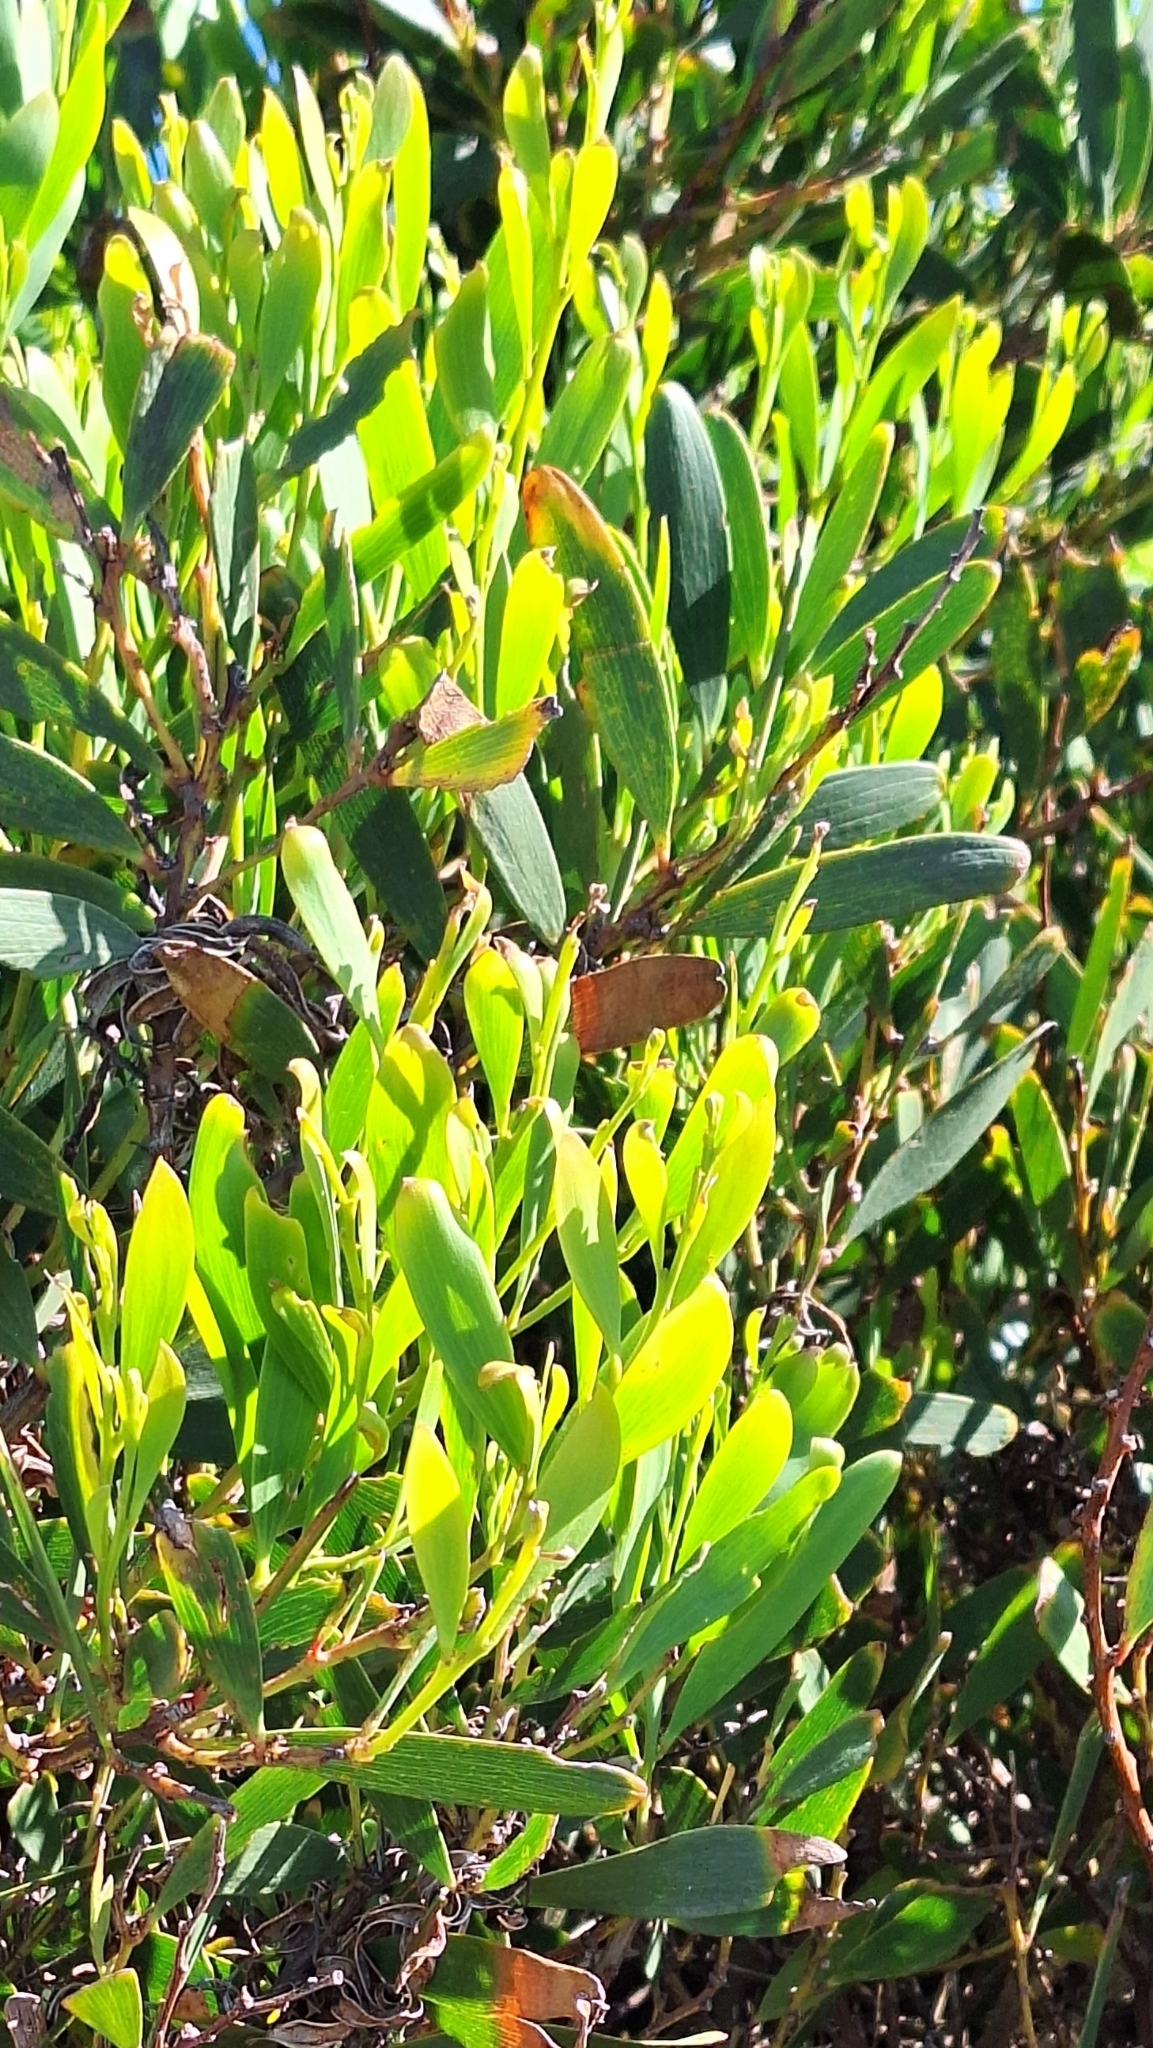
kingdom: Plantae
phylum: Tracheophyta
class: Magnoliopsida
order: Fabales
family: Fabaceae
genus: Acacia
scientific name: Acacia longifolia
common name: Sydney golden wattle
